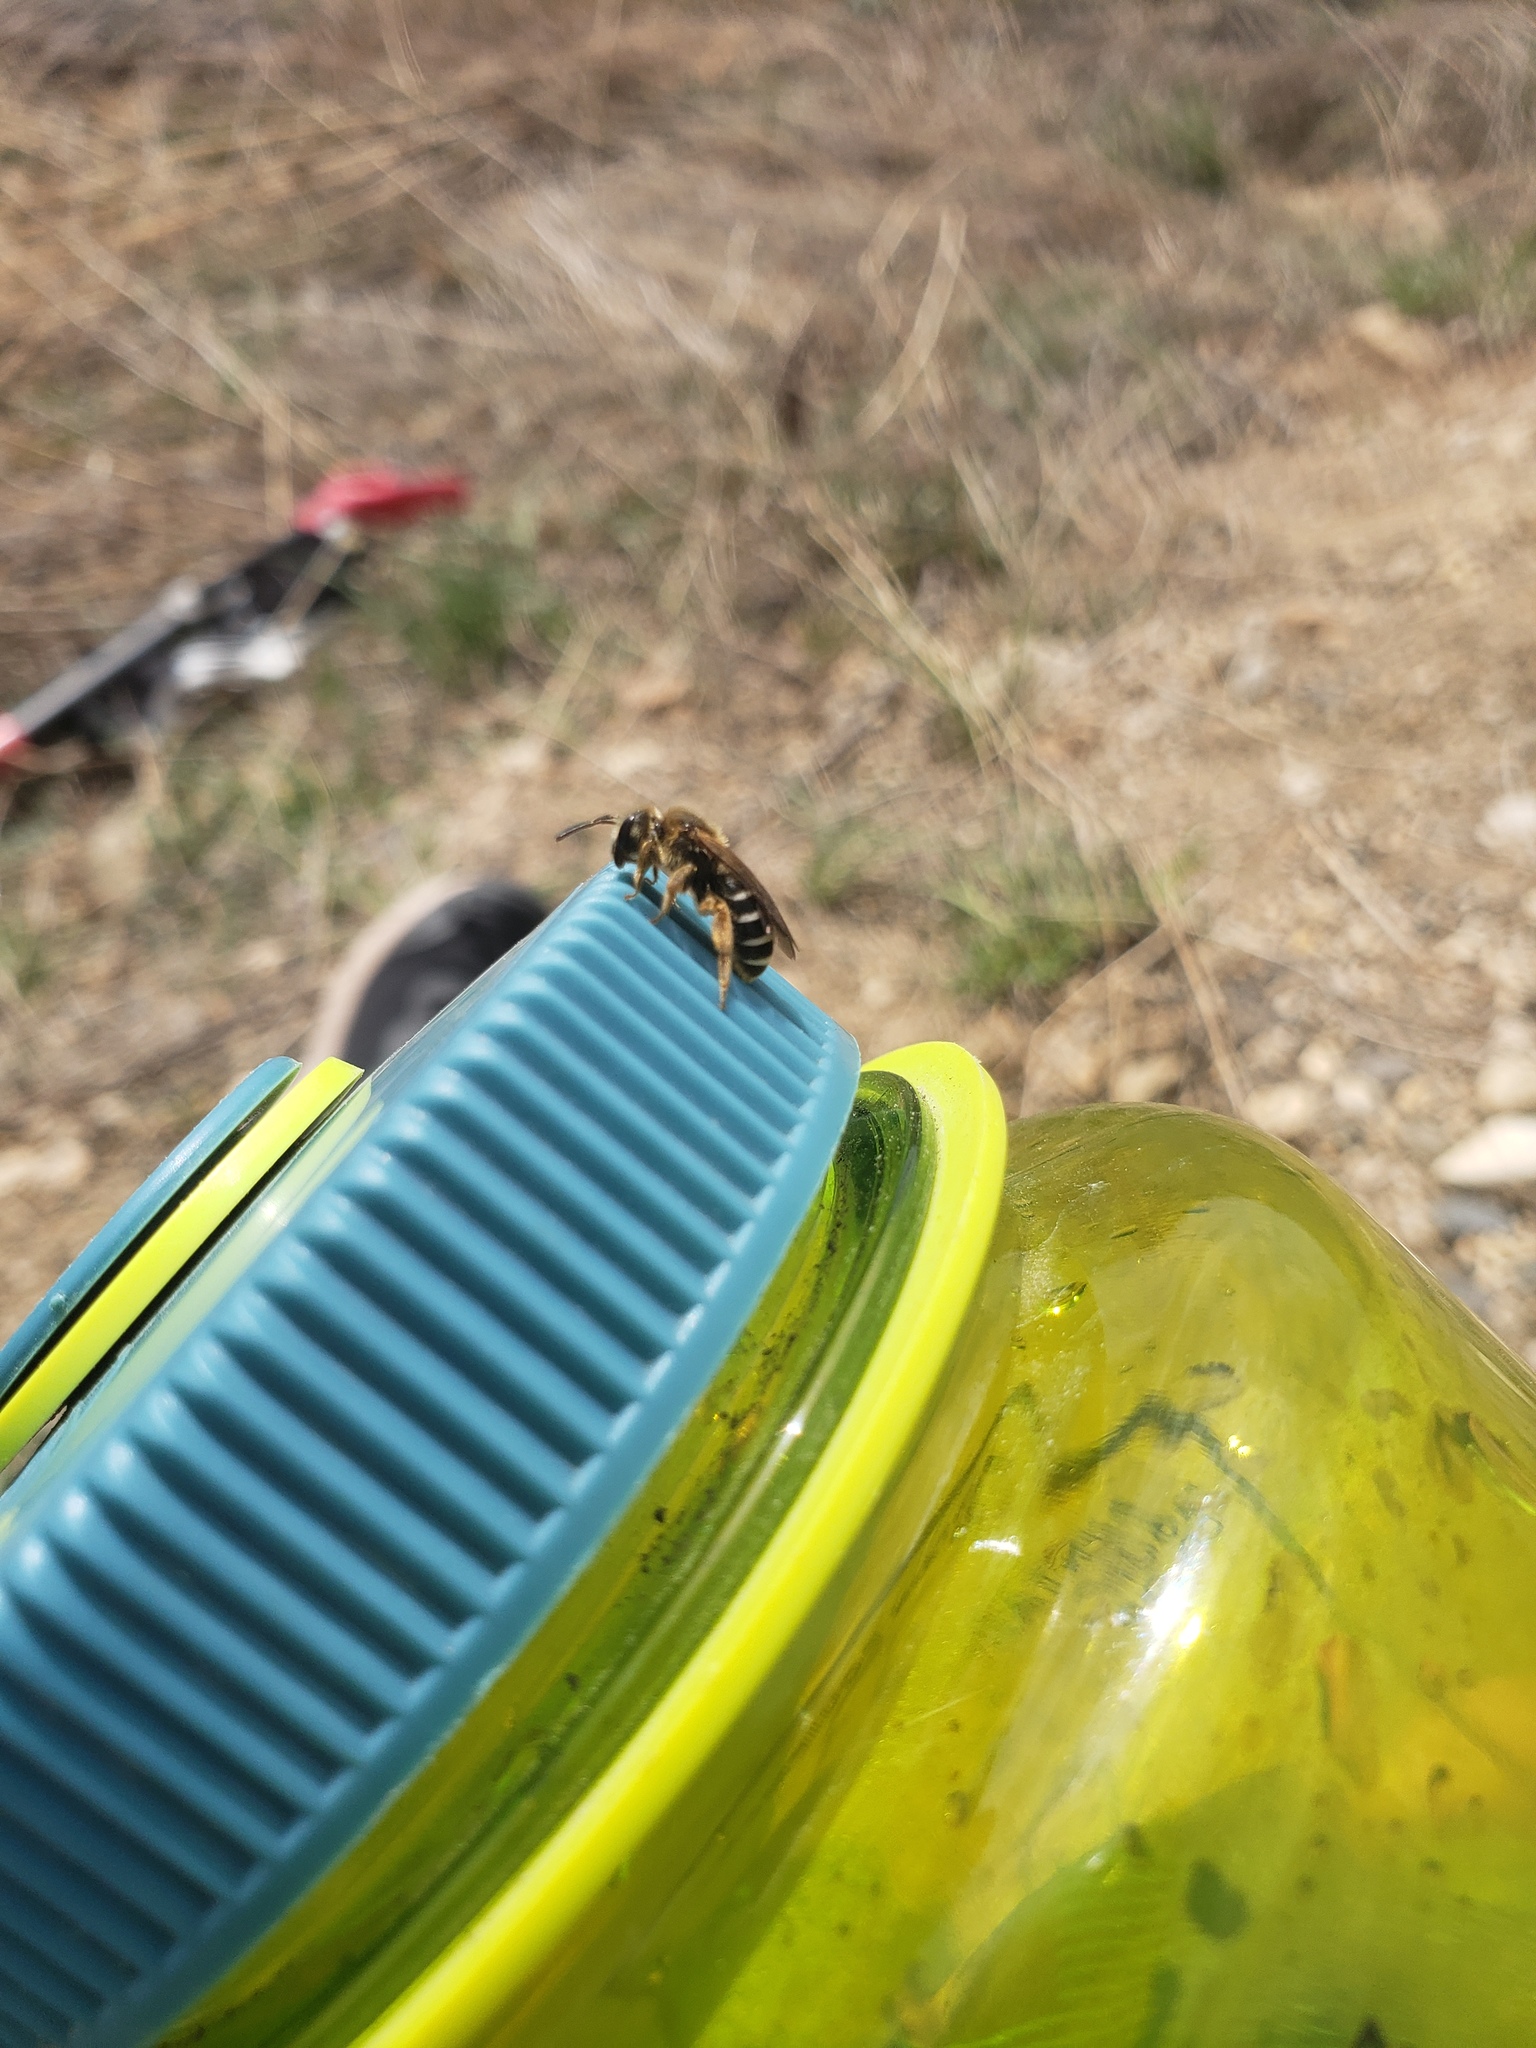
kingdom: Animalia
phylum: Arthropoda
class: Insecta
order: Hymenoptera
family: Halictidae
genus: Halictus
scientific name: Halictus rubicundus
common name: Orange-legged furrow bee
